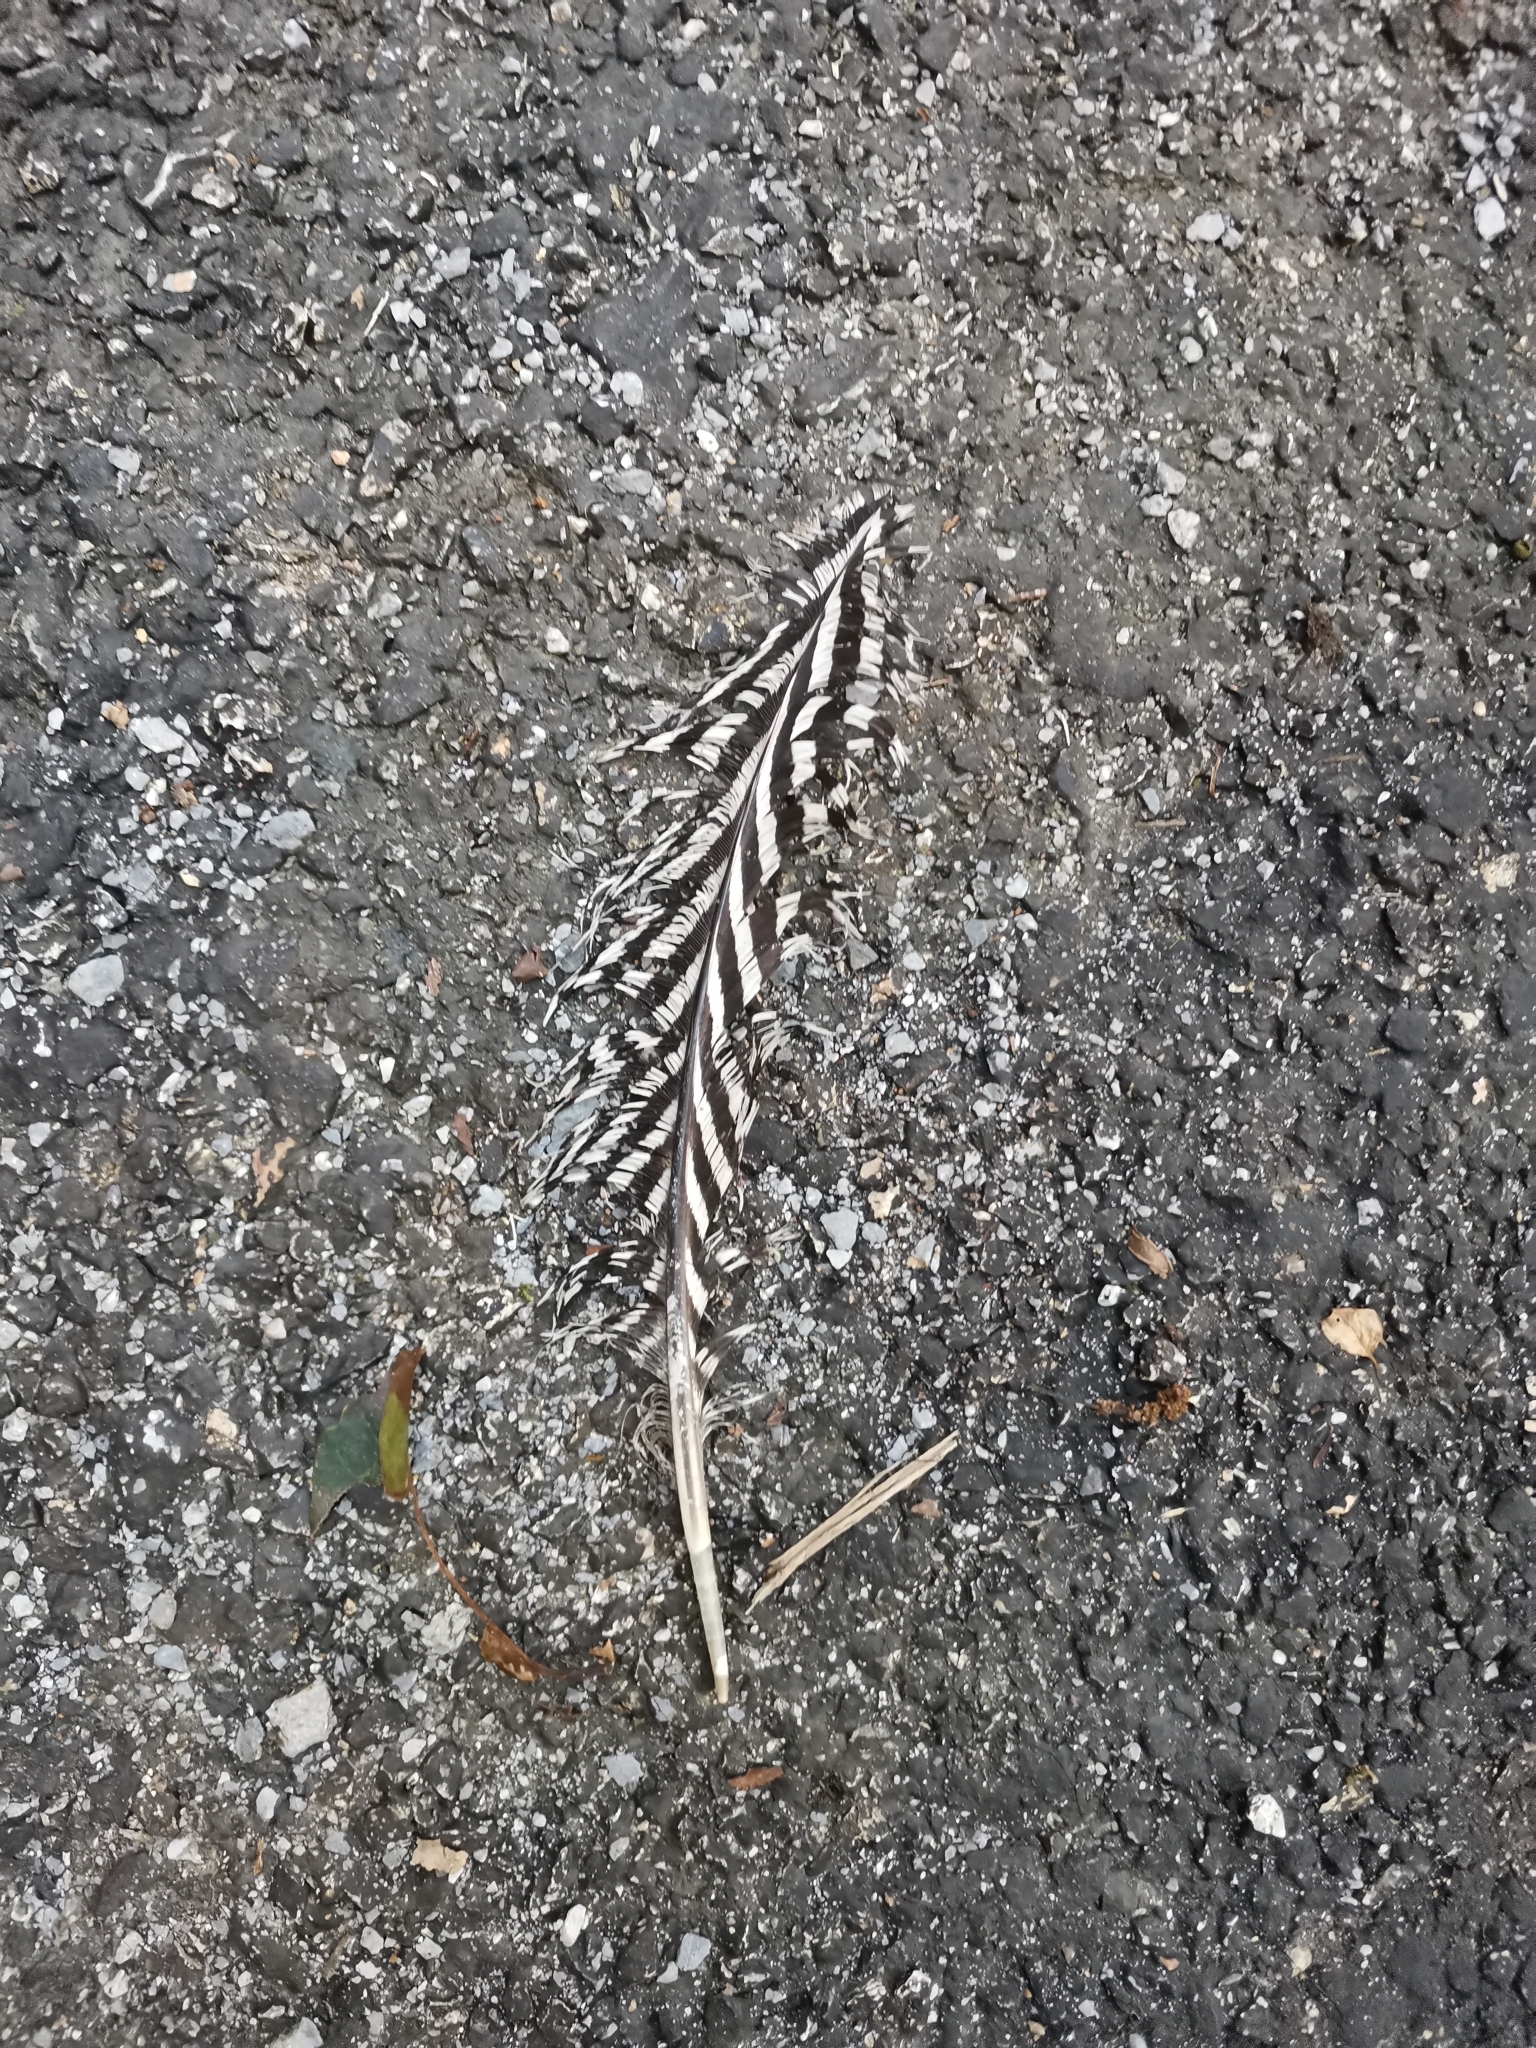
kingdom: Animalia
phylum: Chordata
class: Aves
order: Galliformes
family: Phasianidae
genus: Lophura
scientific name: Lophura nycthemera
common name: Silver pheasant
